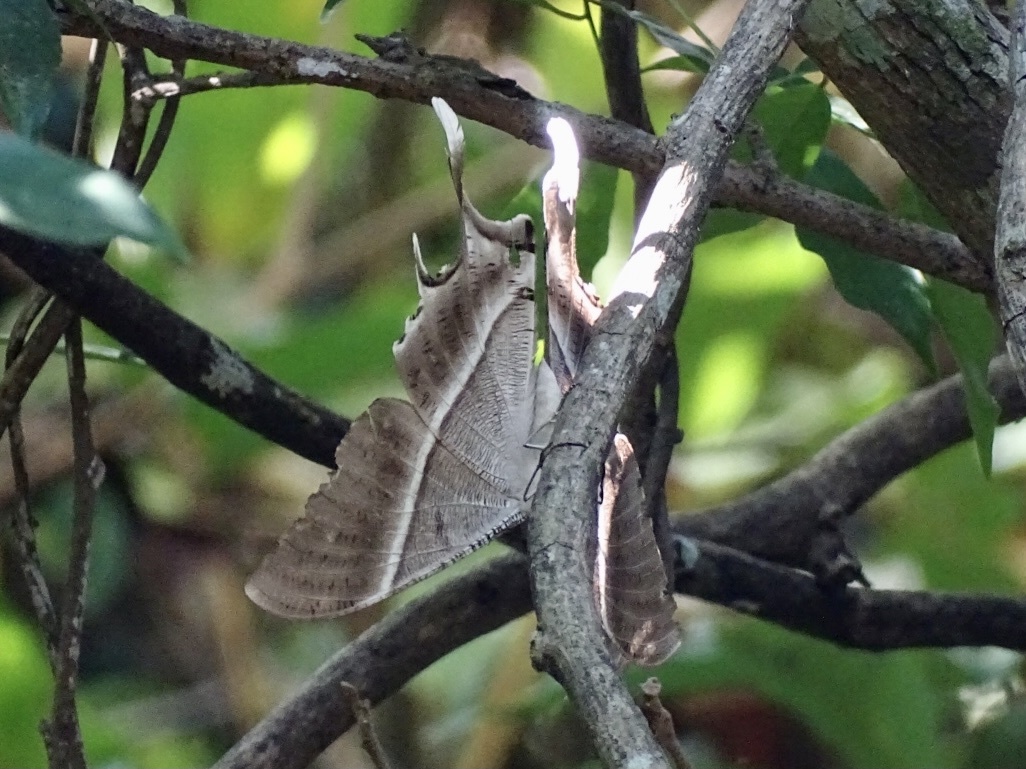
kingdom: Animalia
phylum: Arthropoda
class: Insecta
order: Lepidoptera
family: Uraniidae
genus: Lyssa
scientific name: Lyssa zampa
